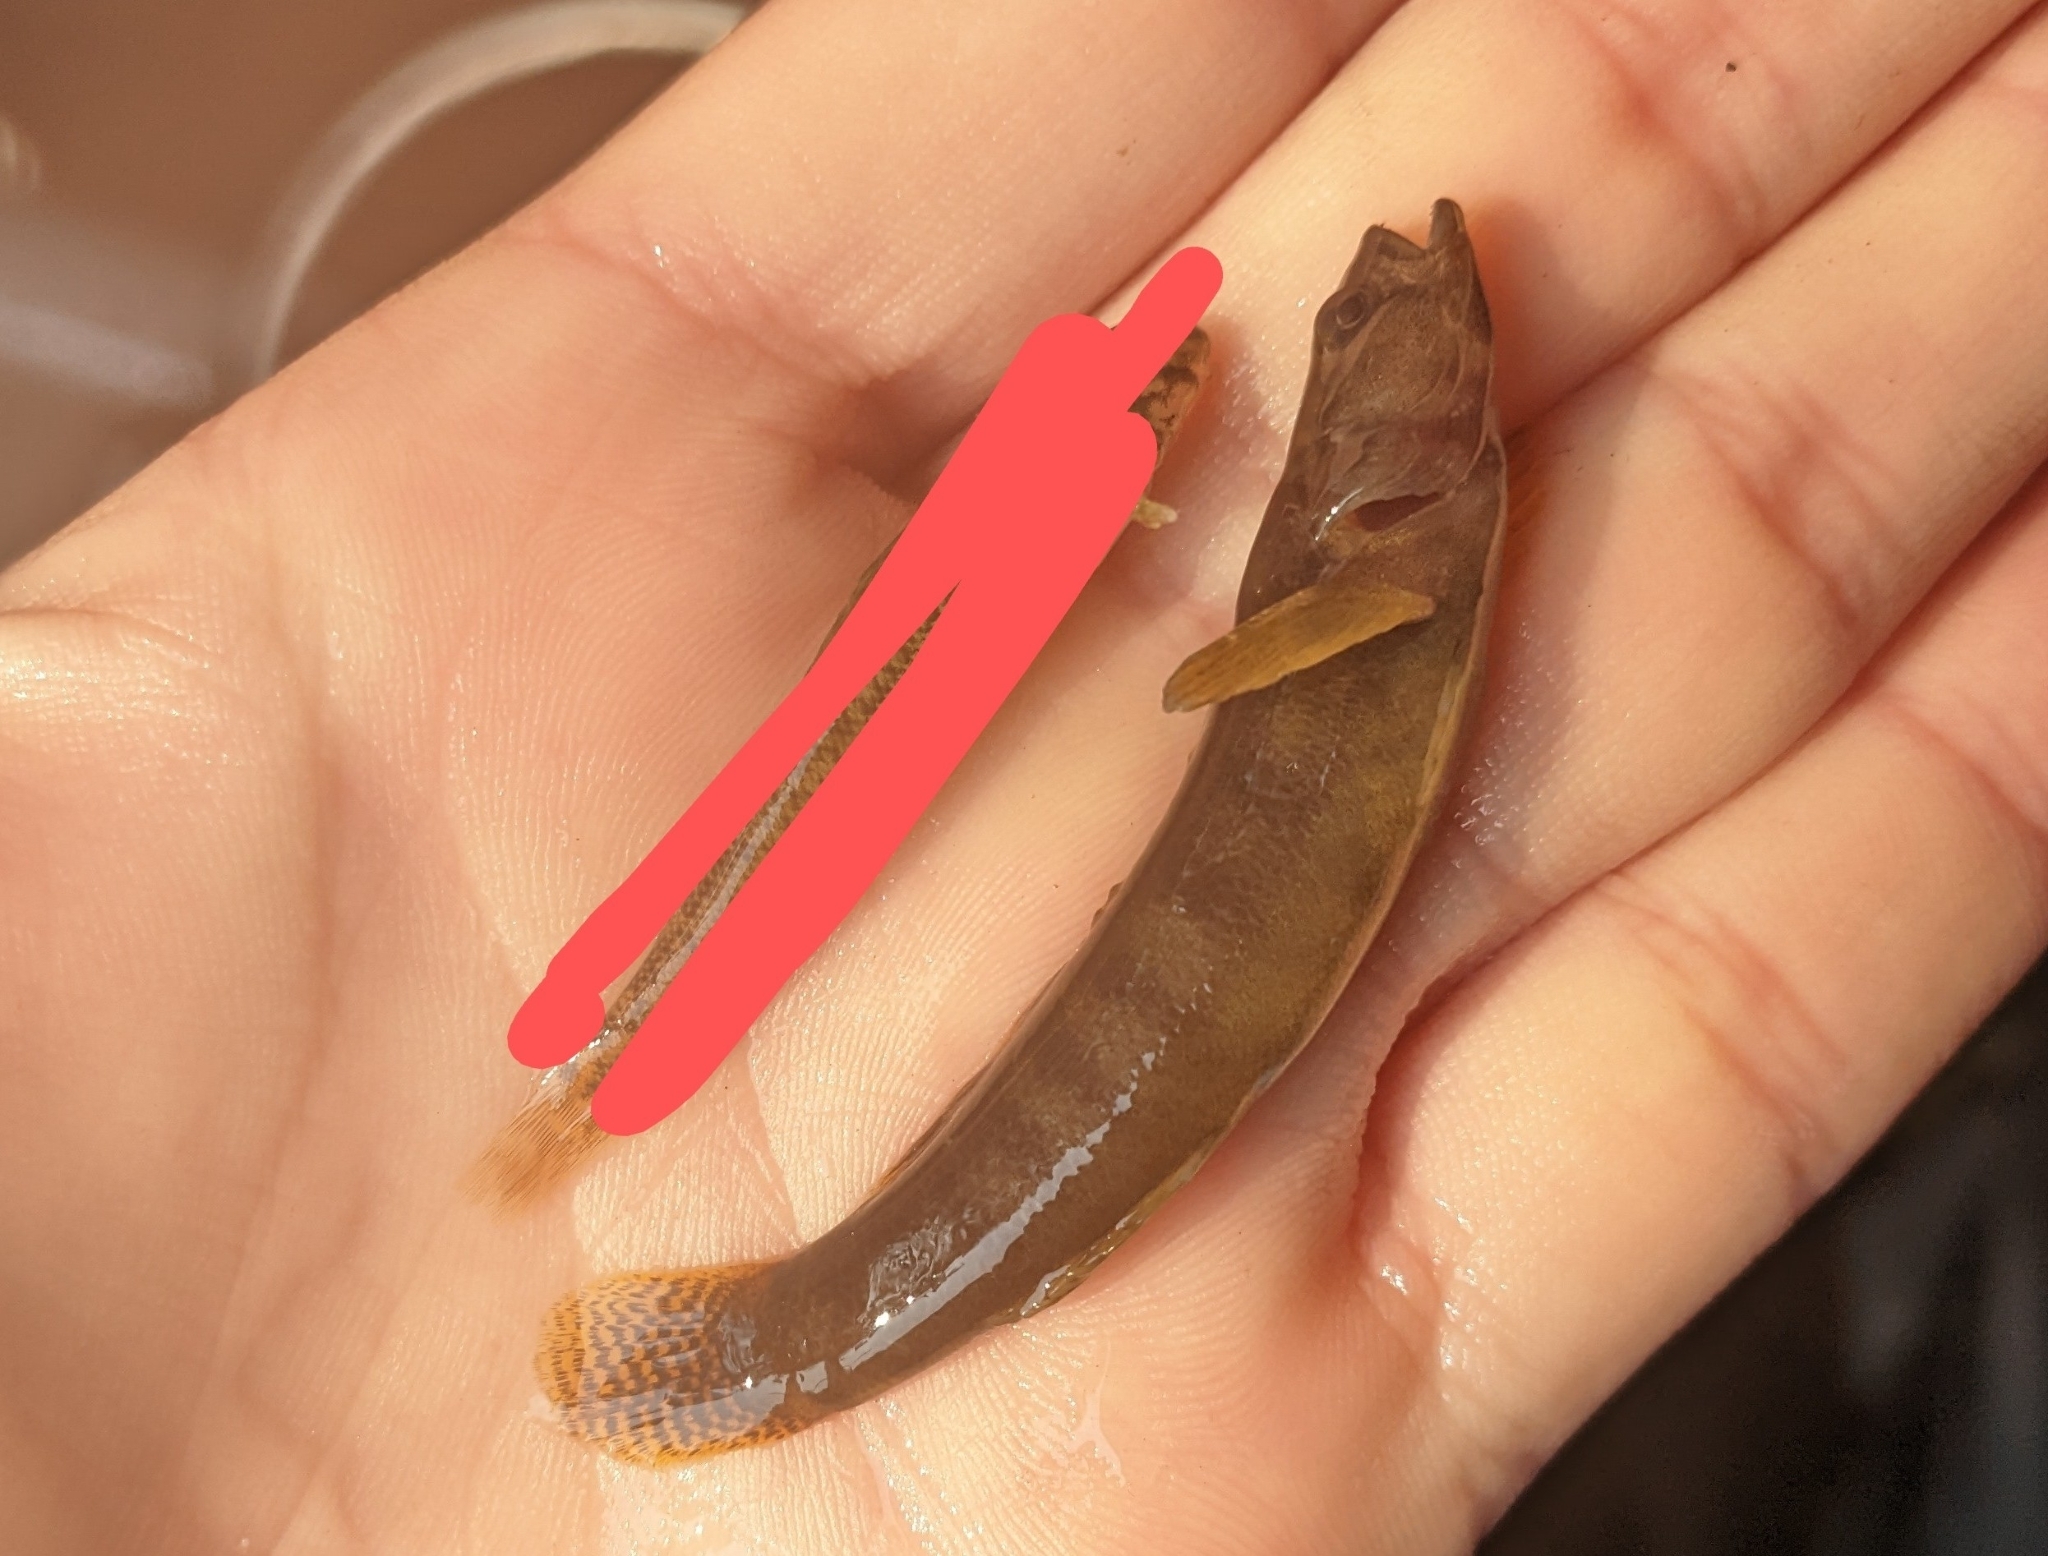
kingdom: Animalia
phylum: Chordata
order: Perciformes
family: Percidae
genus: Etheostoma
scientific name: Etheostoma flabellare
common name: Fantail darter
